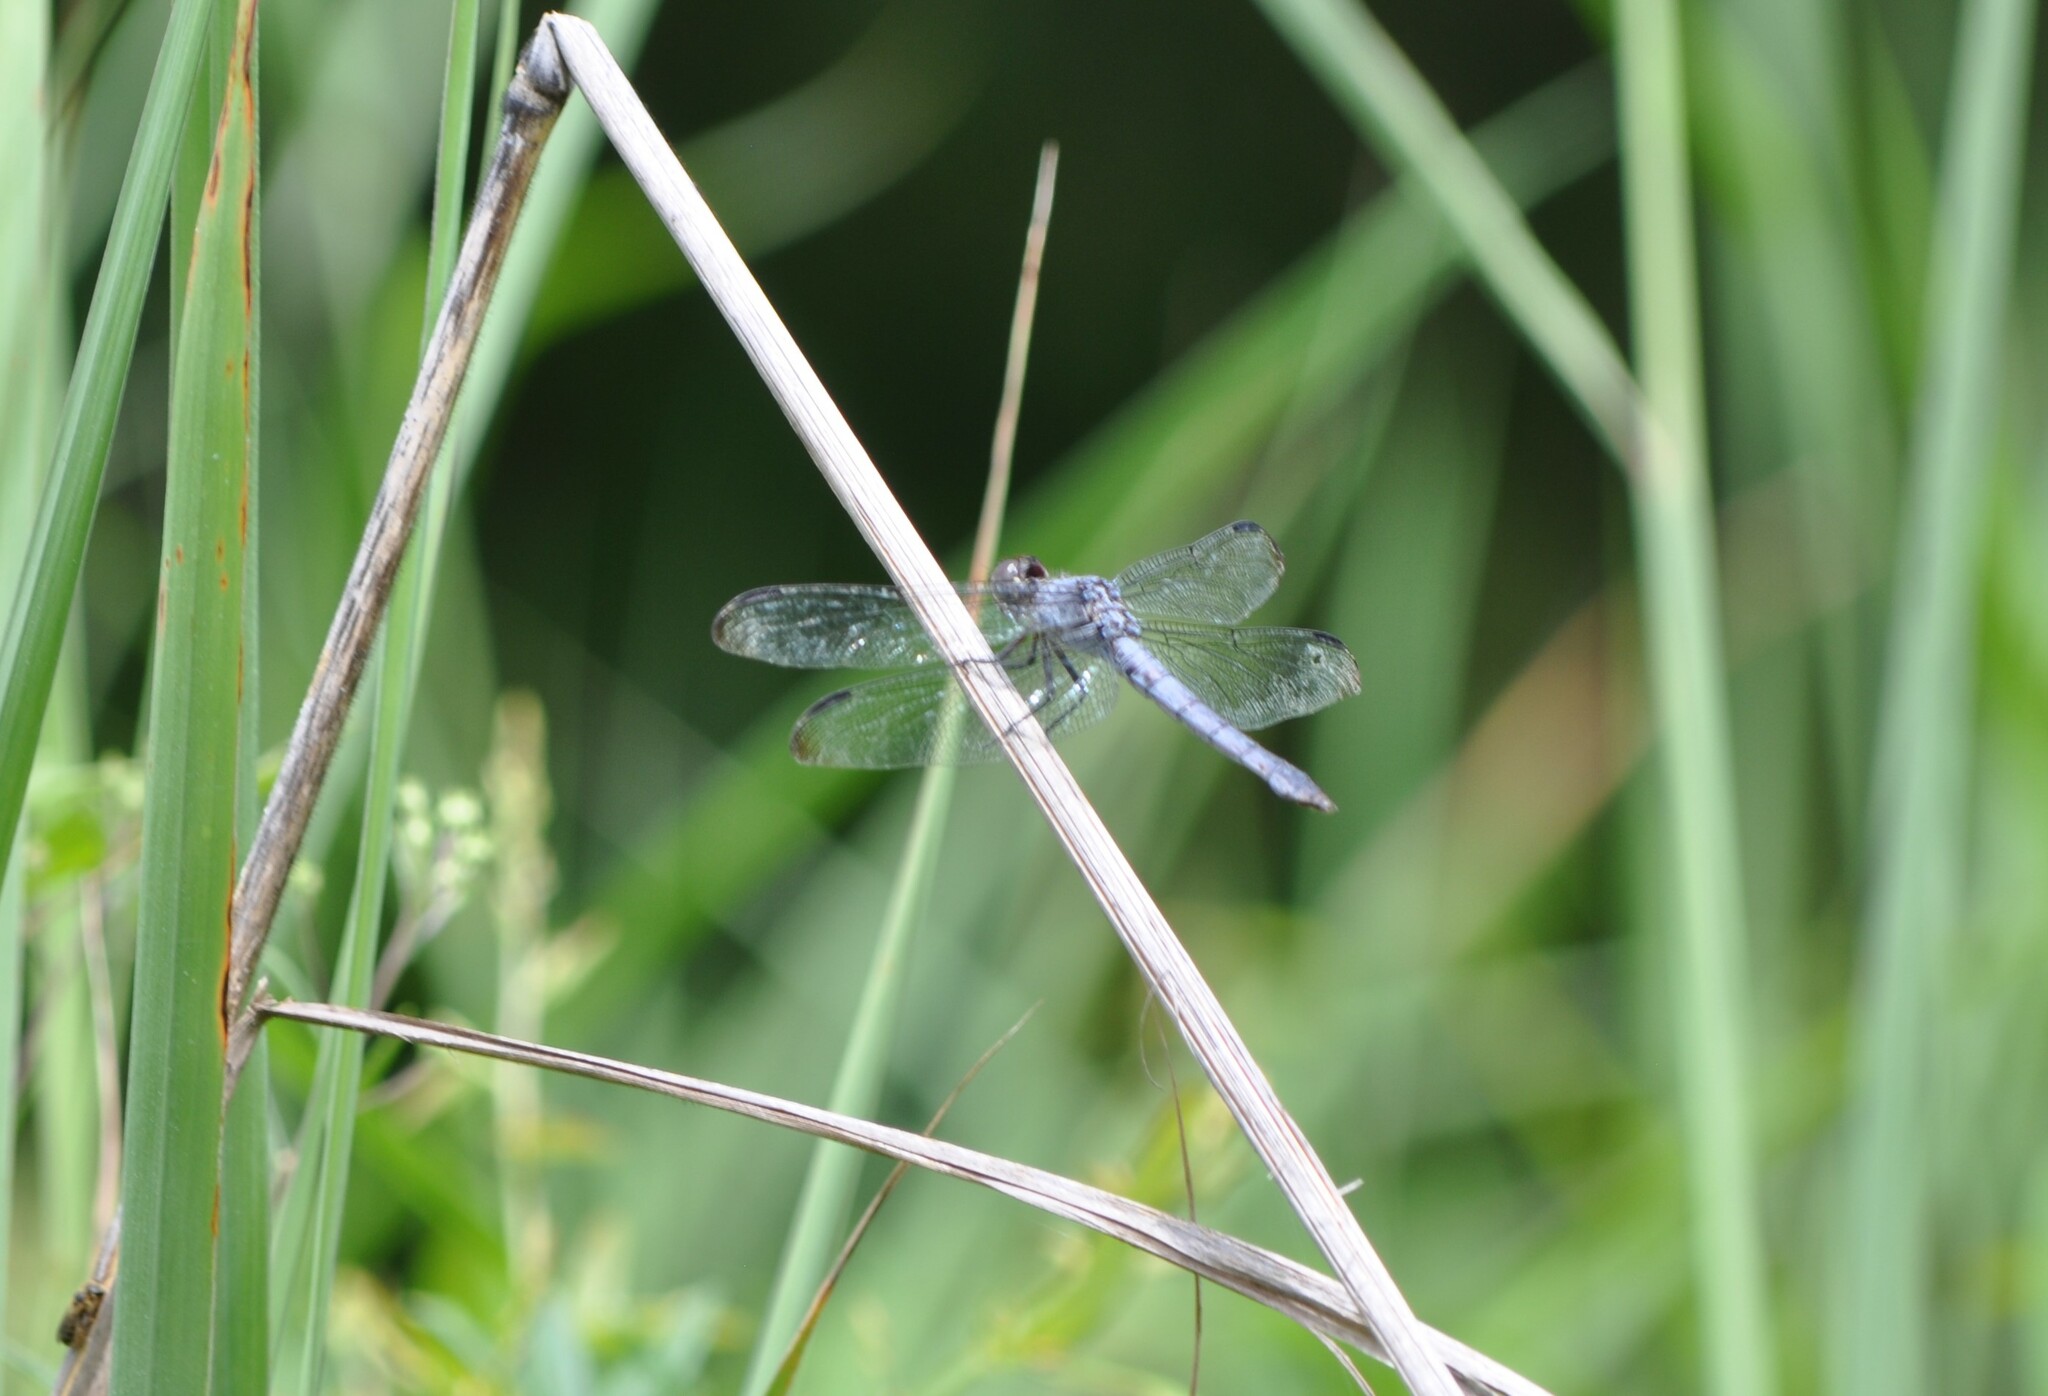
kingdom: Animalia
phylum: Arthropoda
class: Insecta
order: Odonata
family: Libellulidae
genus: Libellula
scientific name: Libellula incesta
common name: Slaty skimmer
